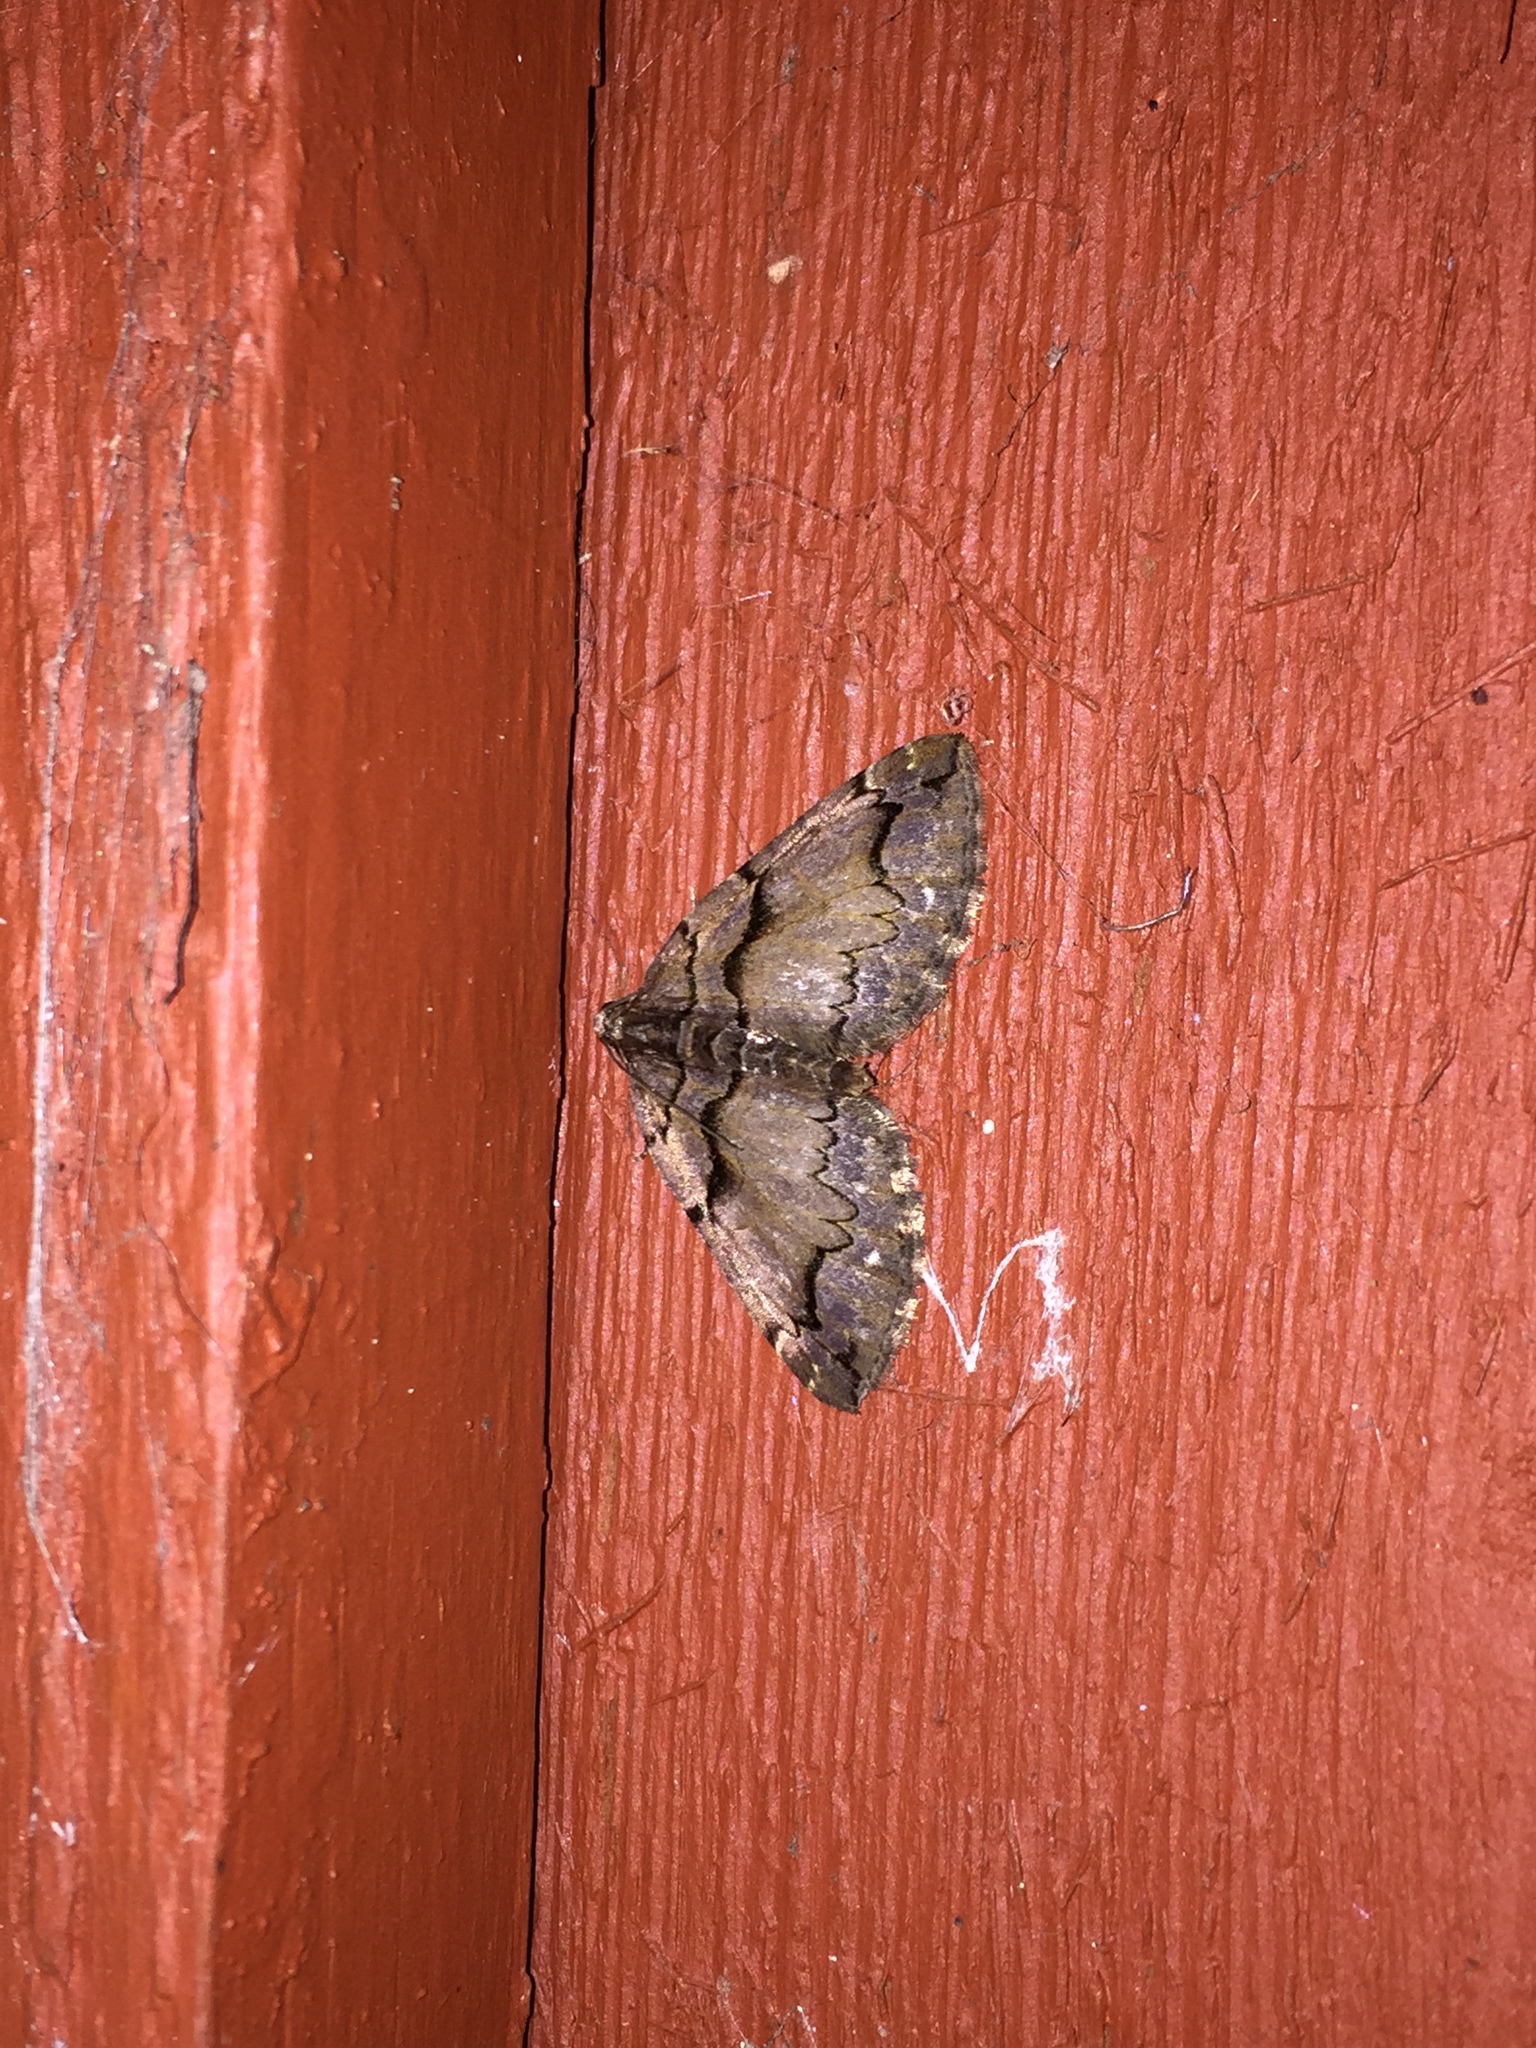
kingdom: Animalia
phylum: Arthropoda
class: Insecta
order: Lepidoptera
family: Geometridae
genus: Anticlea
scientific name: Anticlea vasiliata
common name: Variable carpet
